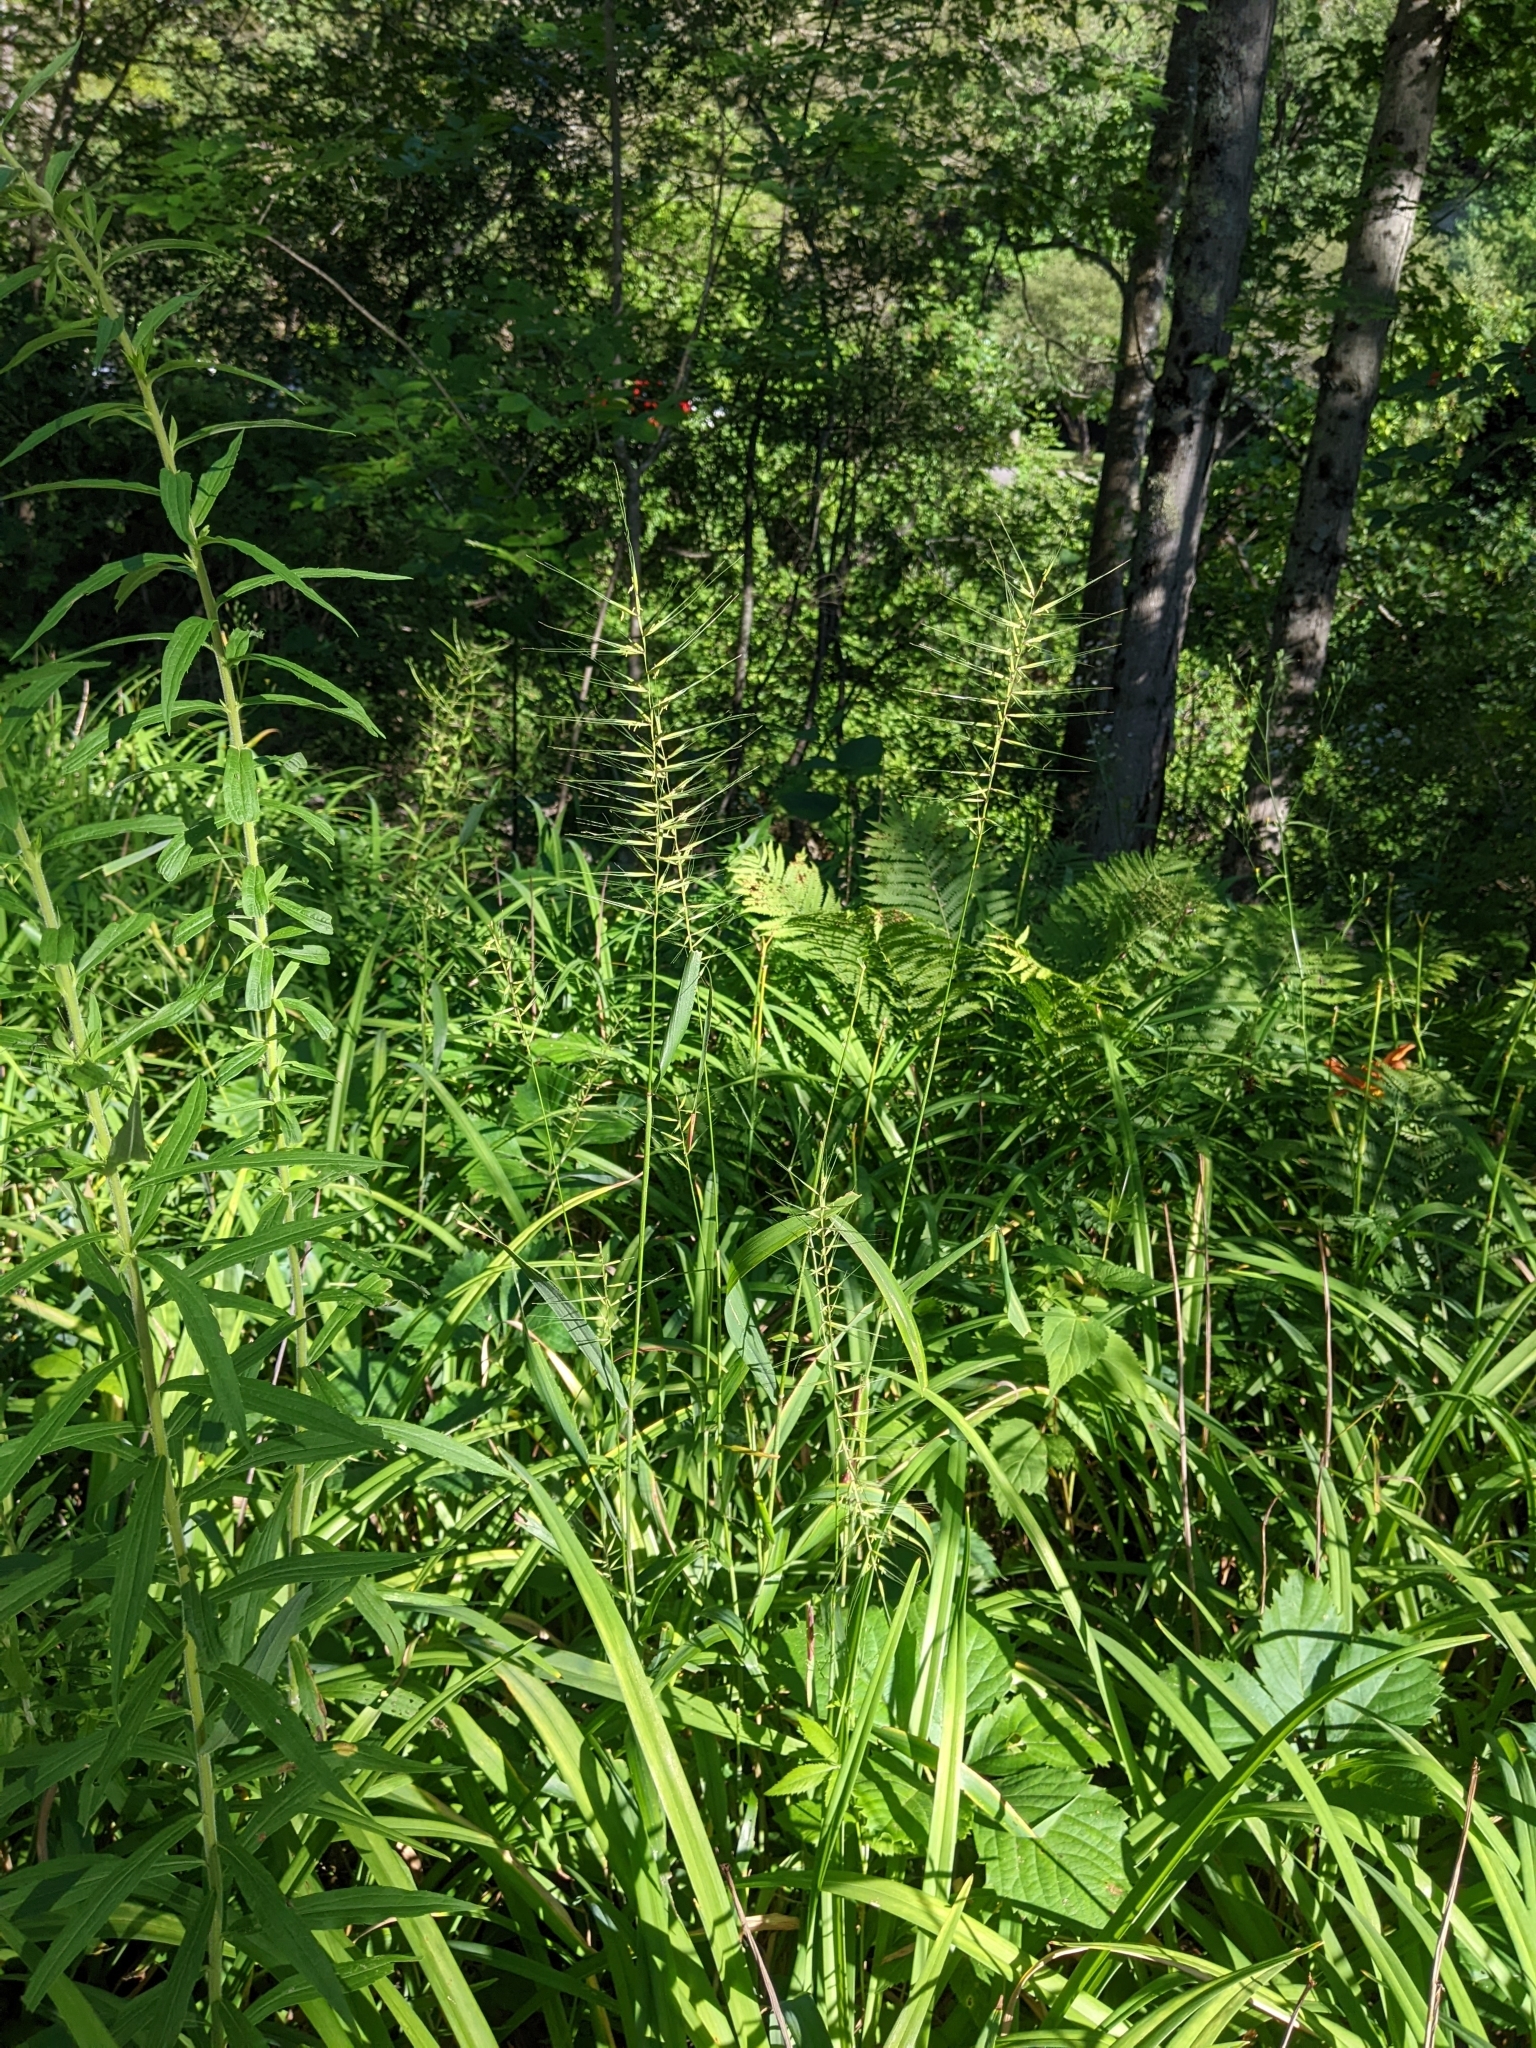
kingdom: Plantae
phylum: Tracheophyta
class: Liliopsida
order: Poales
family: Poaceae
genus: Elymus
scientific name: Elymus hystrix
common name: Bottlebrush grass
